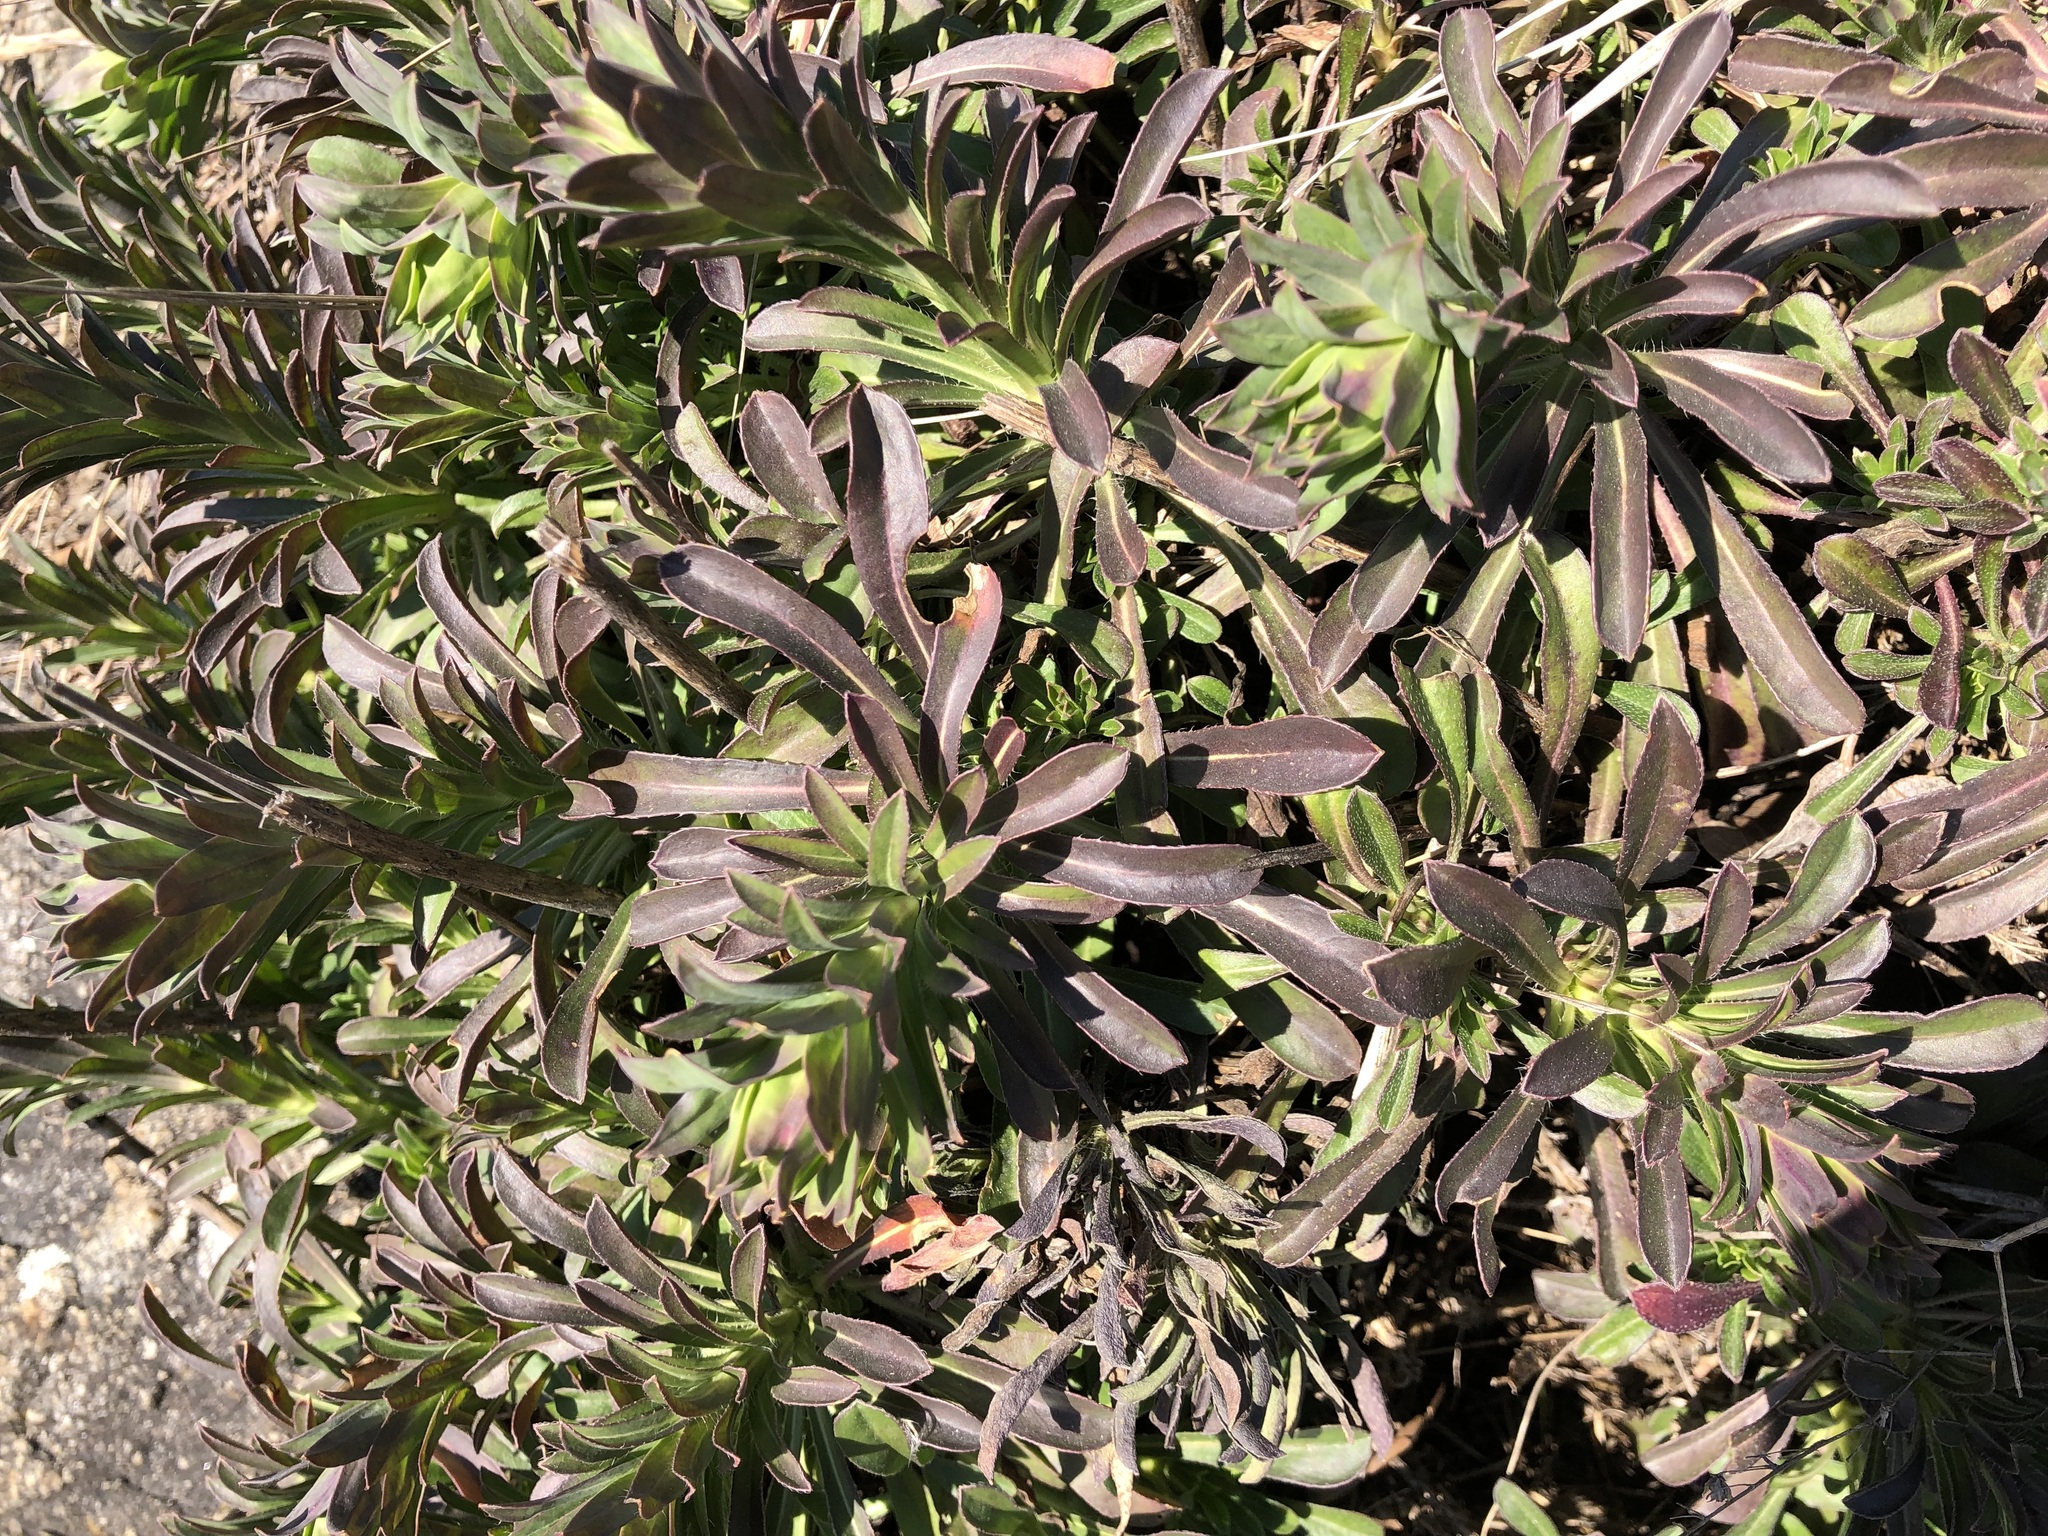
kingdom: Plantae
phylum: Tracheophyta
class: Magnoliopsida
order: Brassicales
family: Brassicaceae
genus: Alyssoides
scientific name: Alyssoides utriculata
